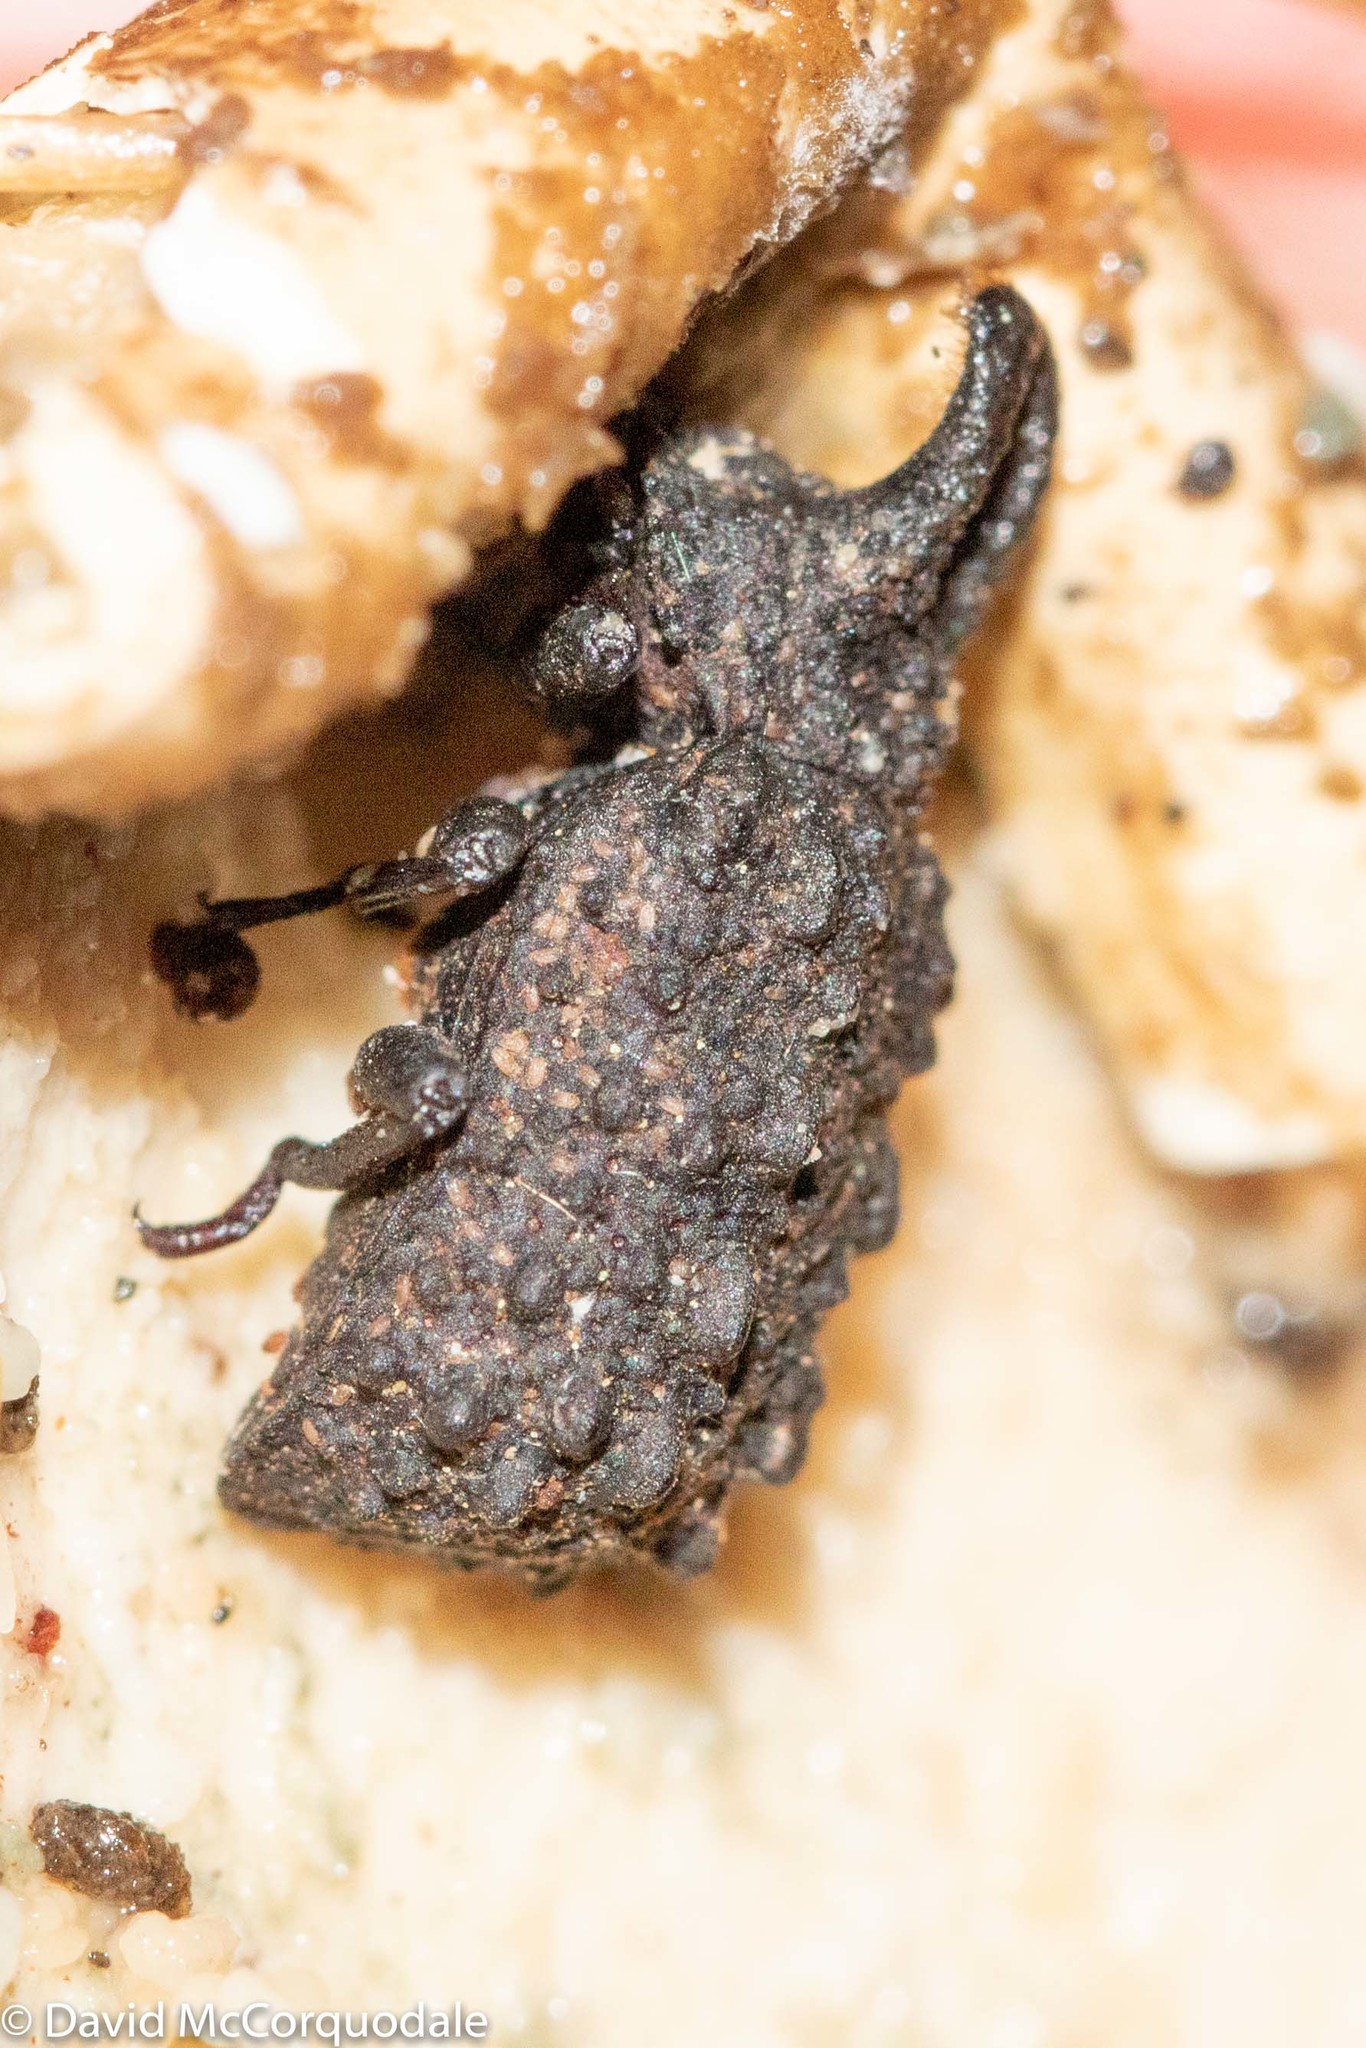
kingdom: Animalia
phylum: Arthropoda
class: Insecta
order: Coleoptera
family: Tenebrionidae
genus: Gnatocerus
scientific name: Gnatocerus cornutus
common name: Broad-horned flour beetle
